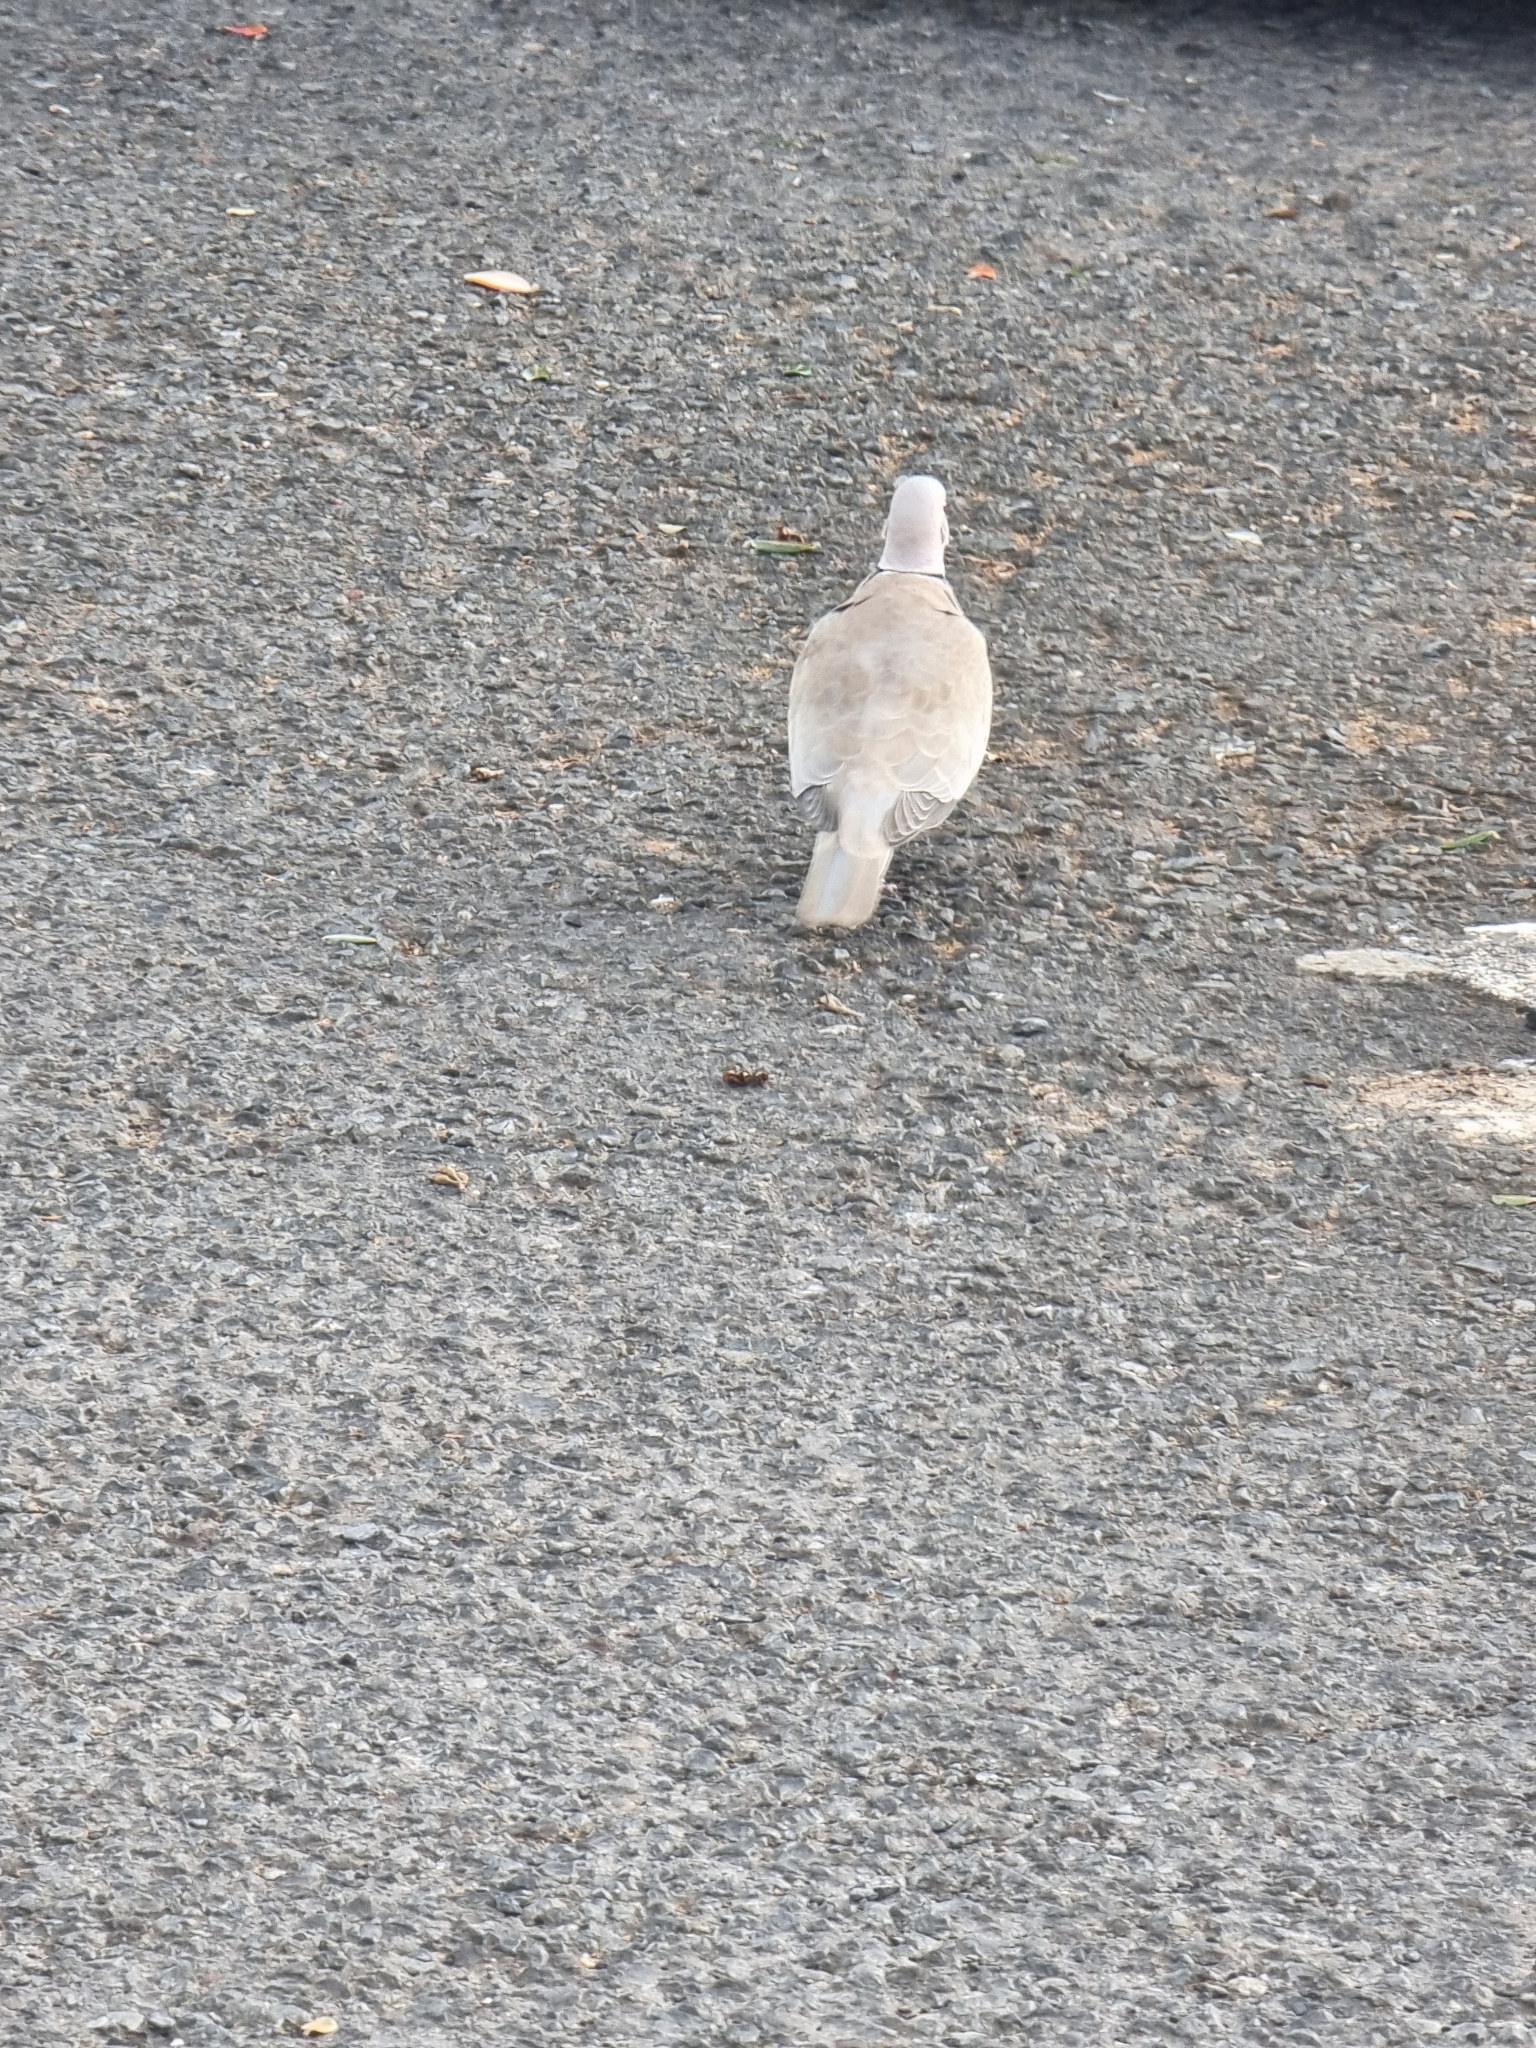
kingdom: Animalia
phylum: Chordata
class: Aves
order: Columbiformes
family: Columbidae
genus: Streptopelia
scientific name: Streptopelia decaocto
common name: Eurasian collared dove
